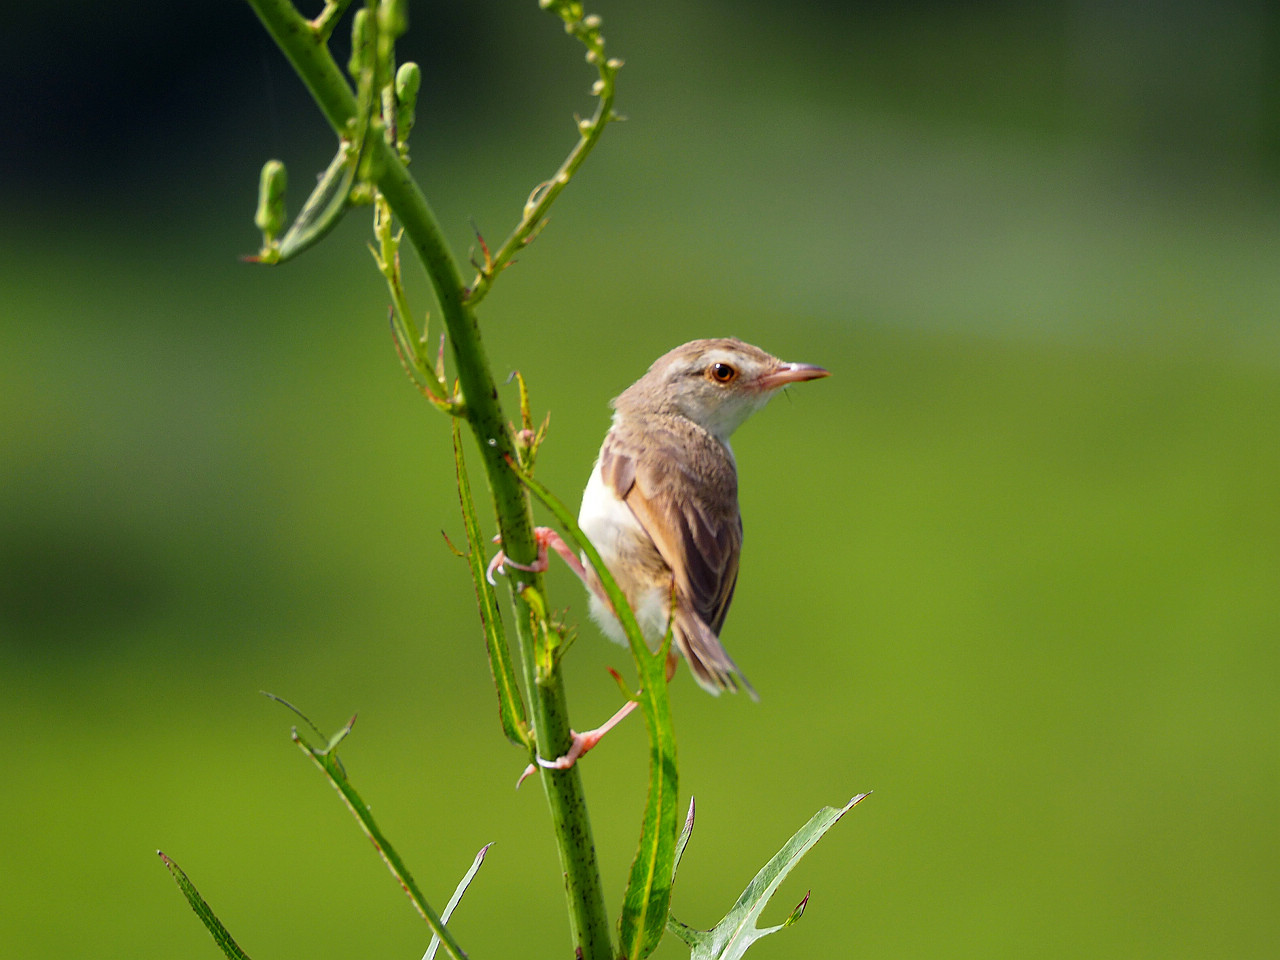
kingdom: Animalia
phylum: Chordata
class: Aves
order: Passeriformes
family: Cisticolidae
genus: Prinia
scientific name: Prinia inornata
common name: Plain prinia
